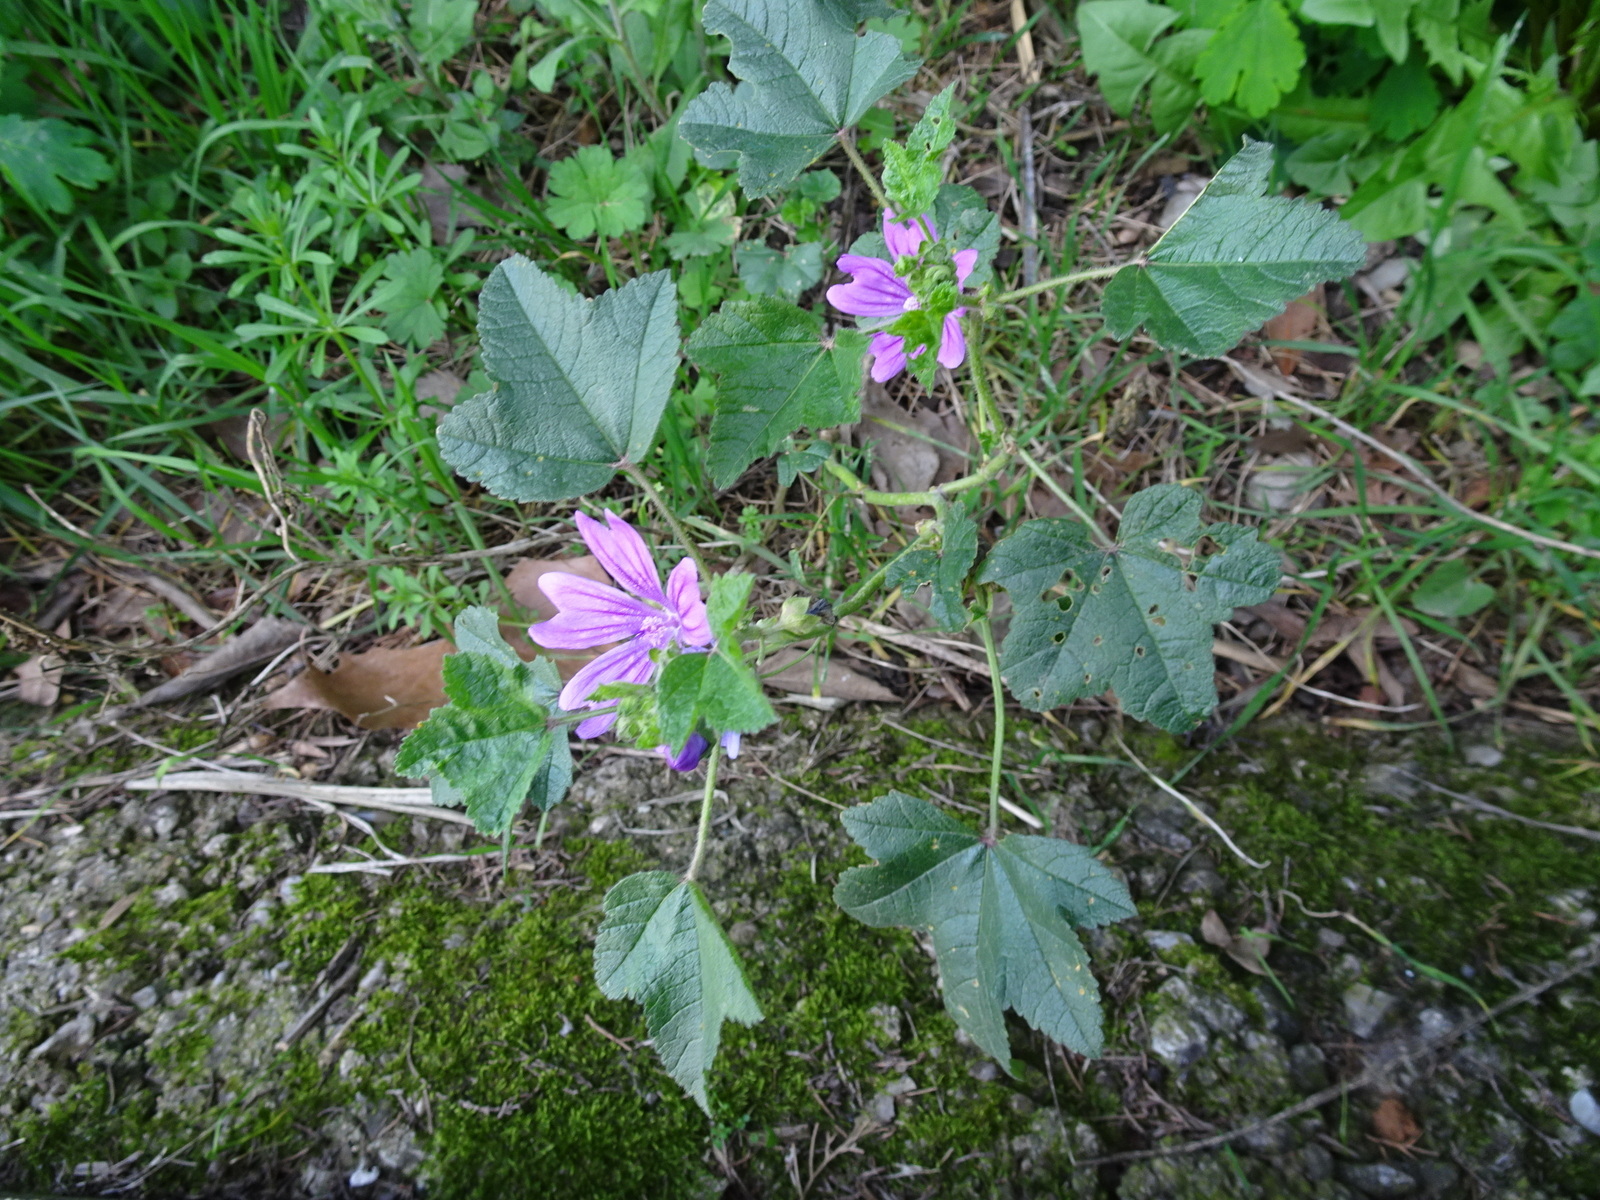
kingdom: Plantae
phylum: Tracheophyta
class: Magnoliopsida
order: Malvales
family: Malvaceae
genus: Malva
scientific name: Malva sylvestris
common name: Common mallow
